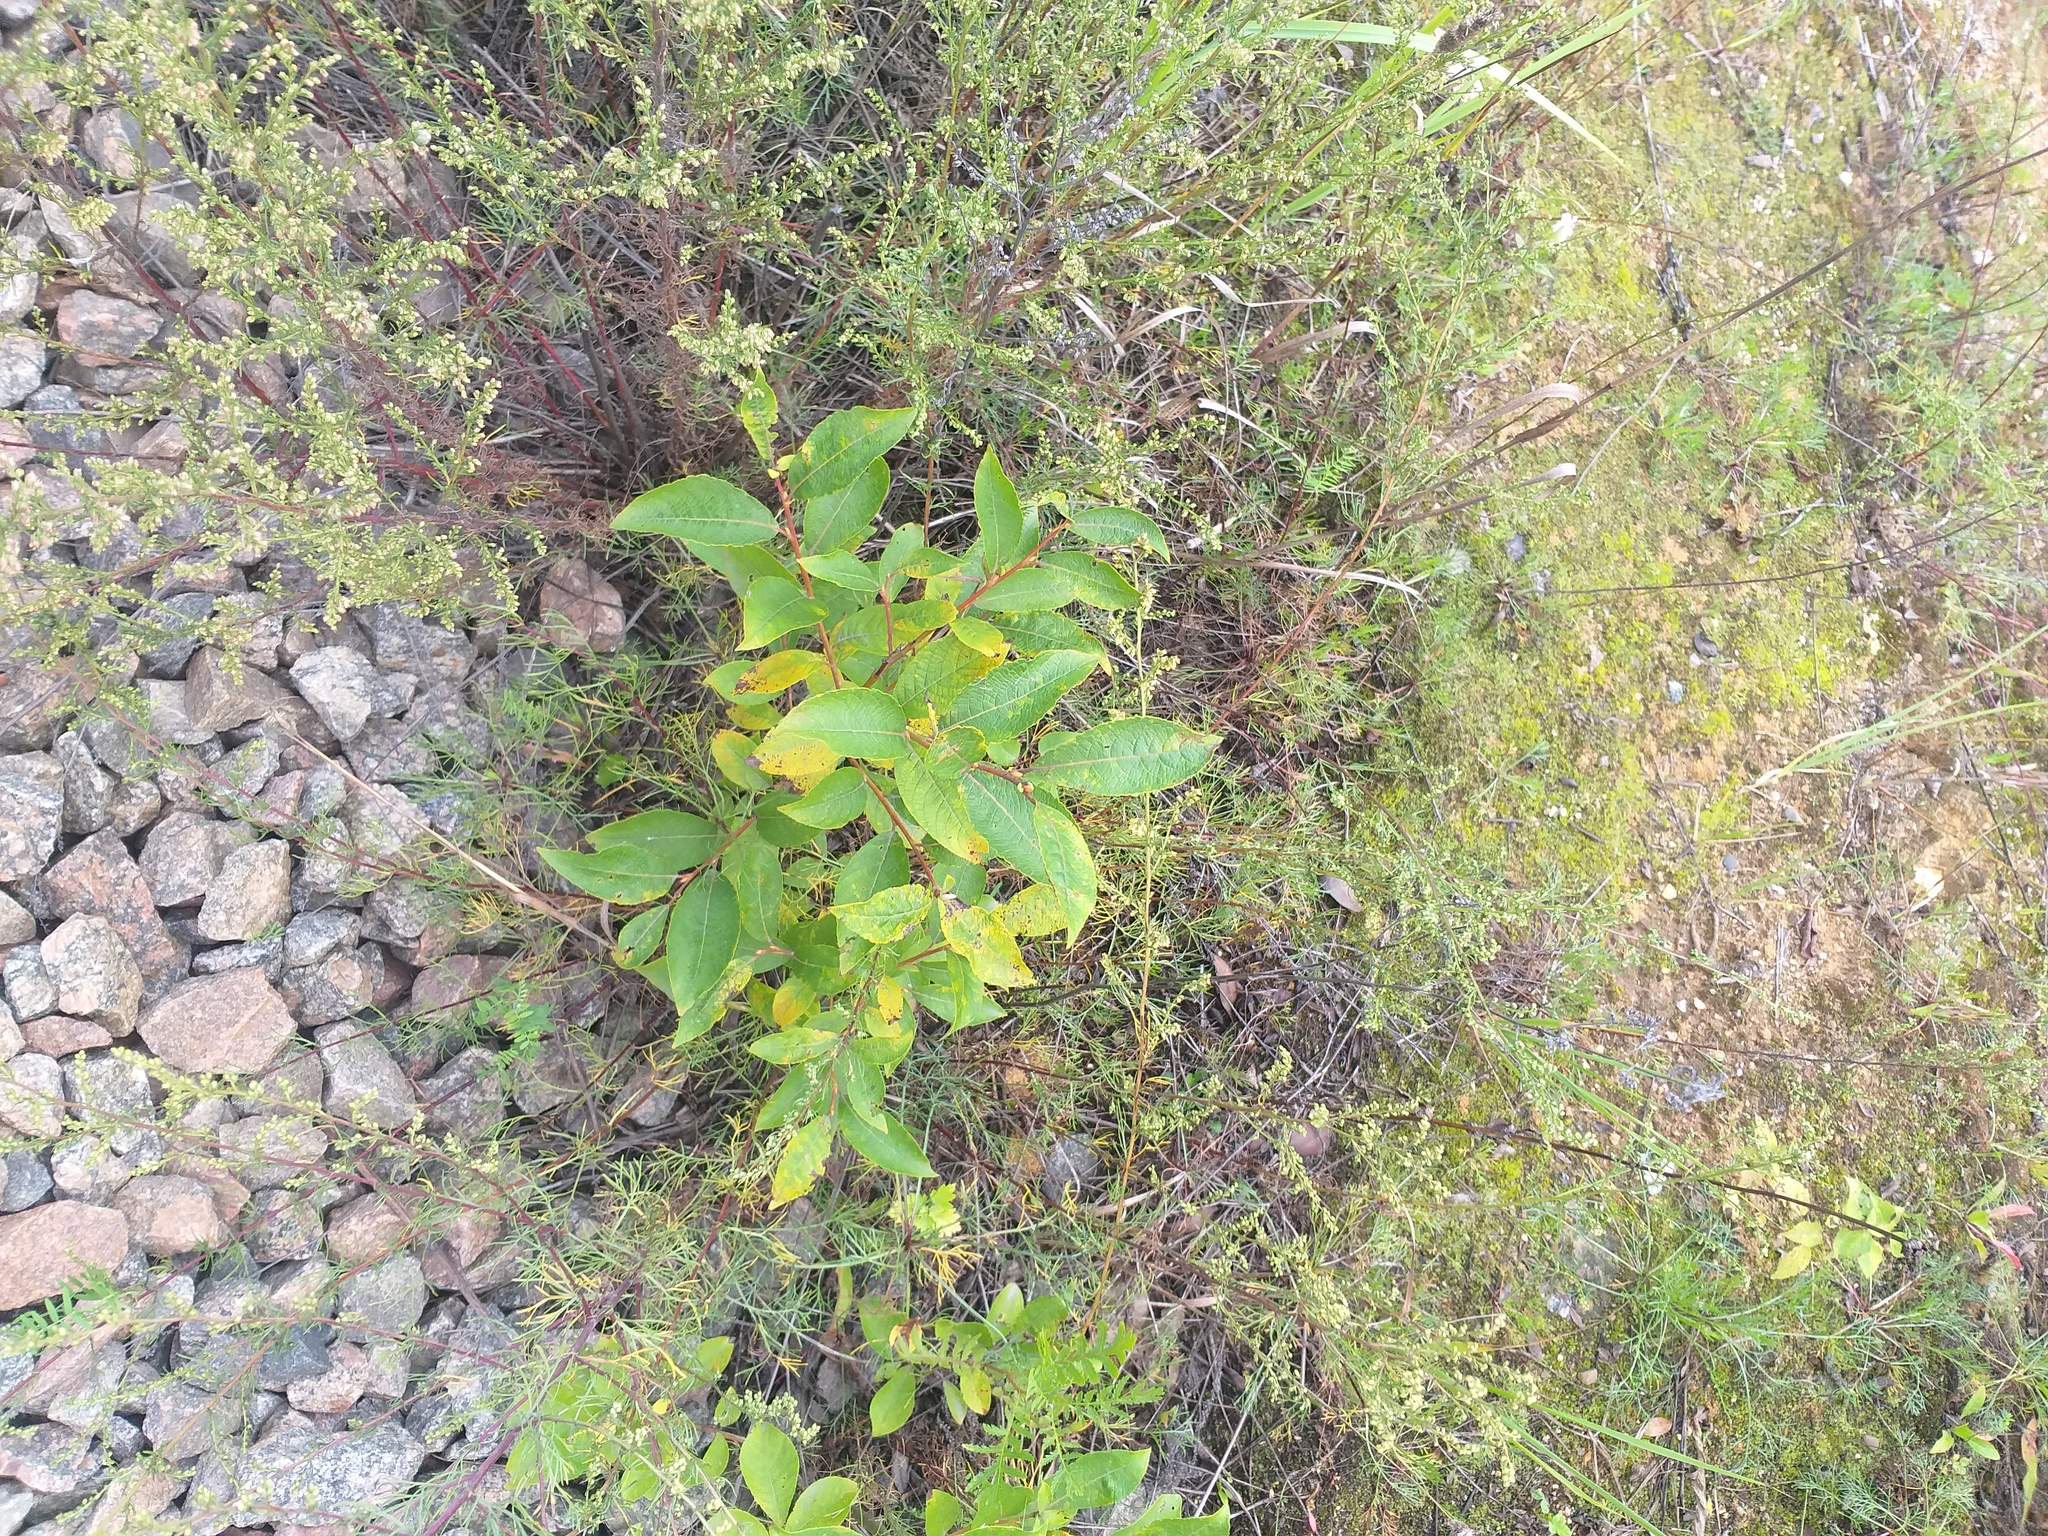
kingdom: Plantae
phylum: Tracheophyta
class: Magnoliopsida
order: Malpighiales
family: Salicaceae
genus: Salix
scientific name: Salix caprea
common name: Goat willow
